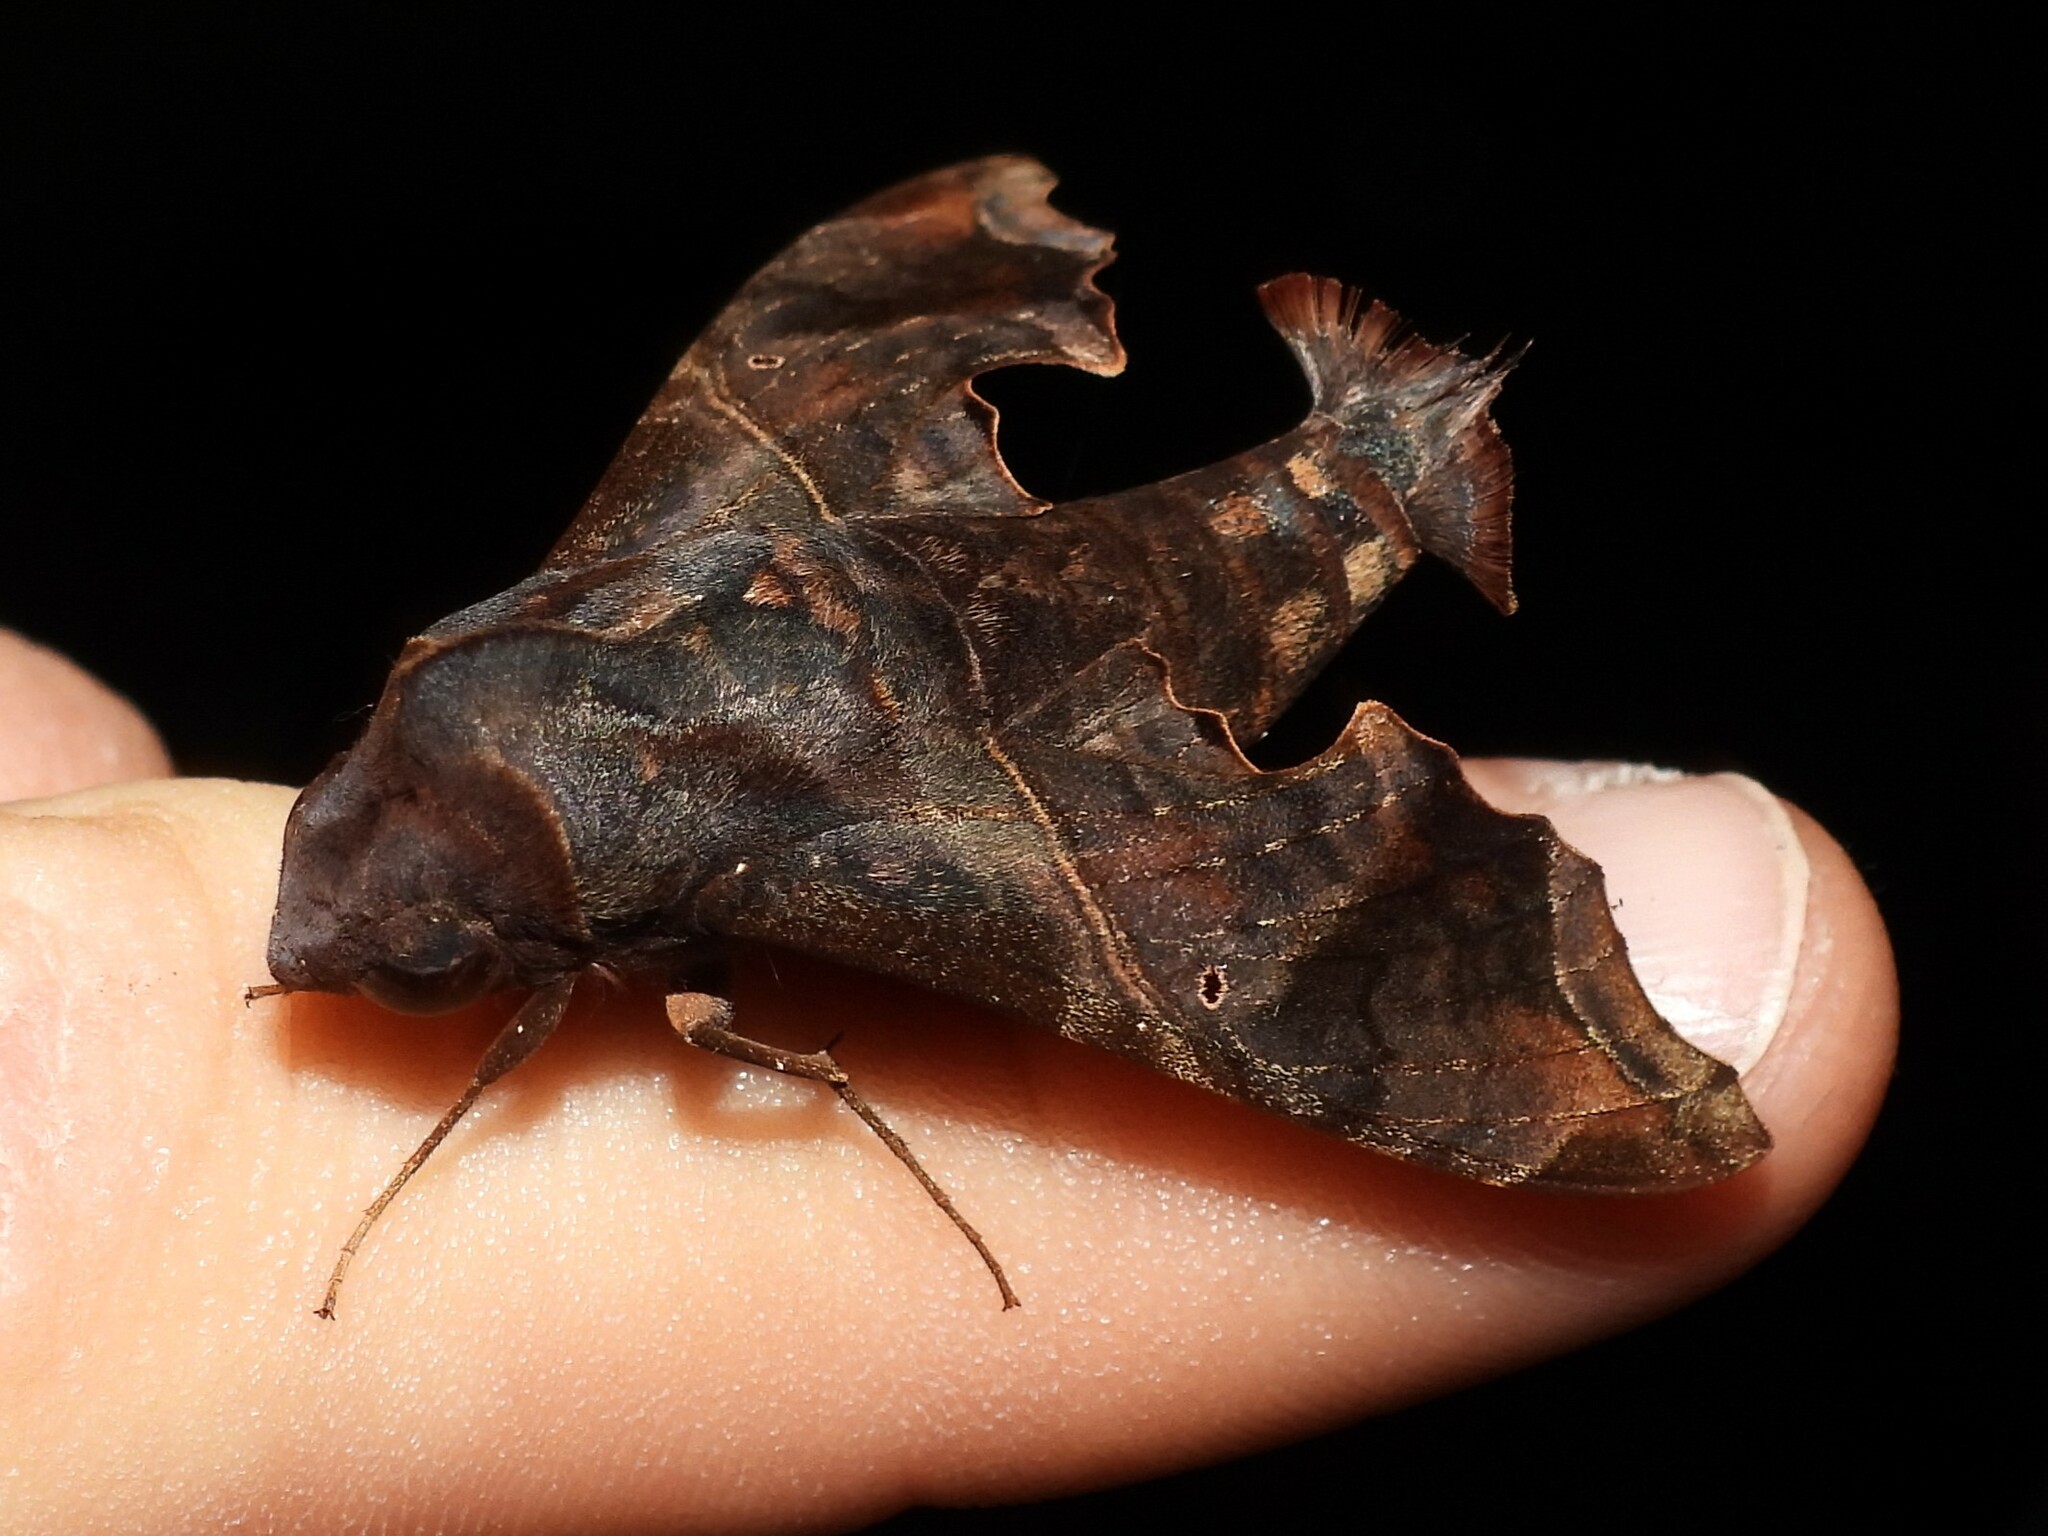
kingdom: Animalia
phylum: Arthropoda
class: Insecta
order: Lepidoptera
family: Sphingidae
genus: Enyo
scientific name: Enyo lugubris
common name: Mournful sphinx
